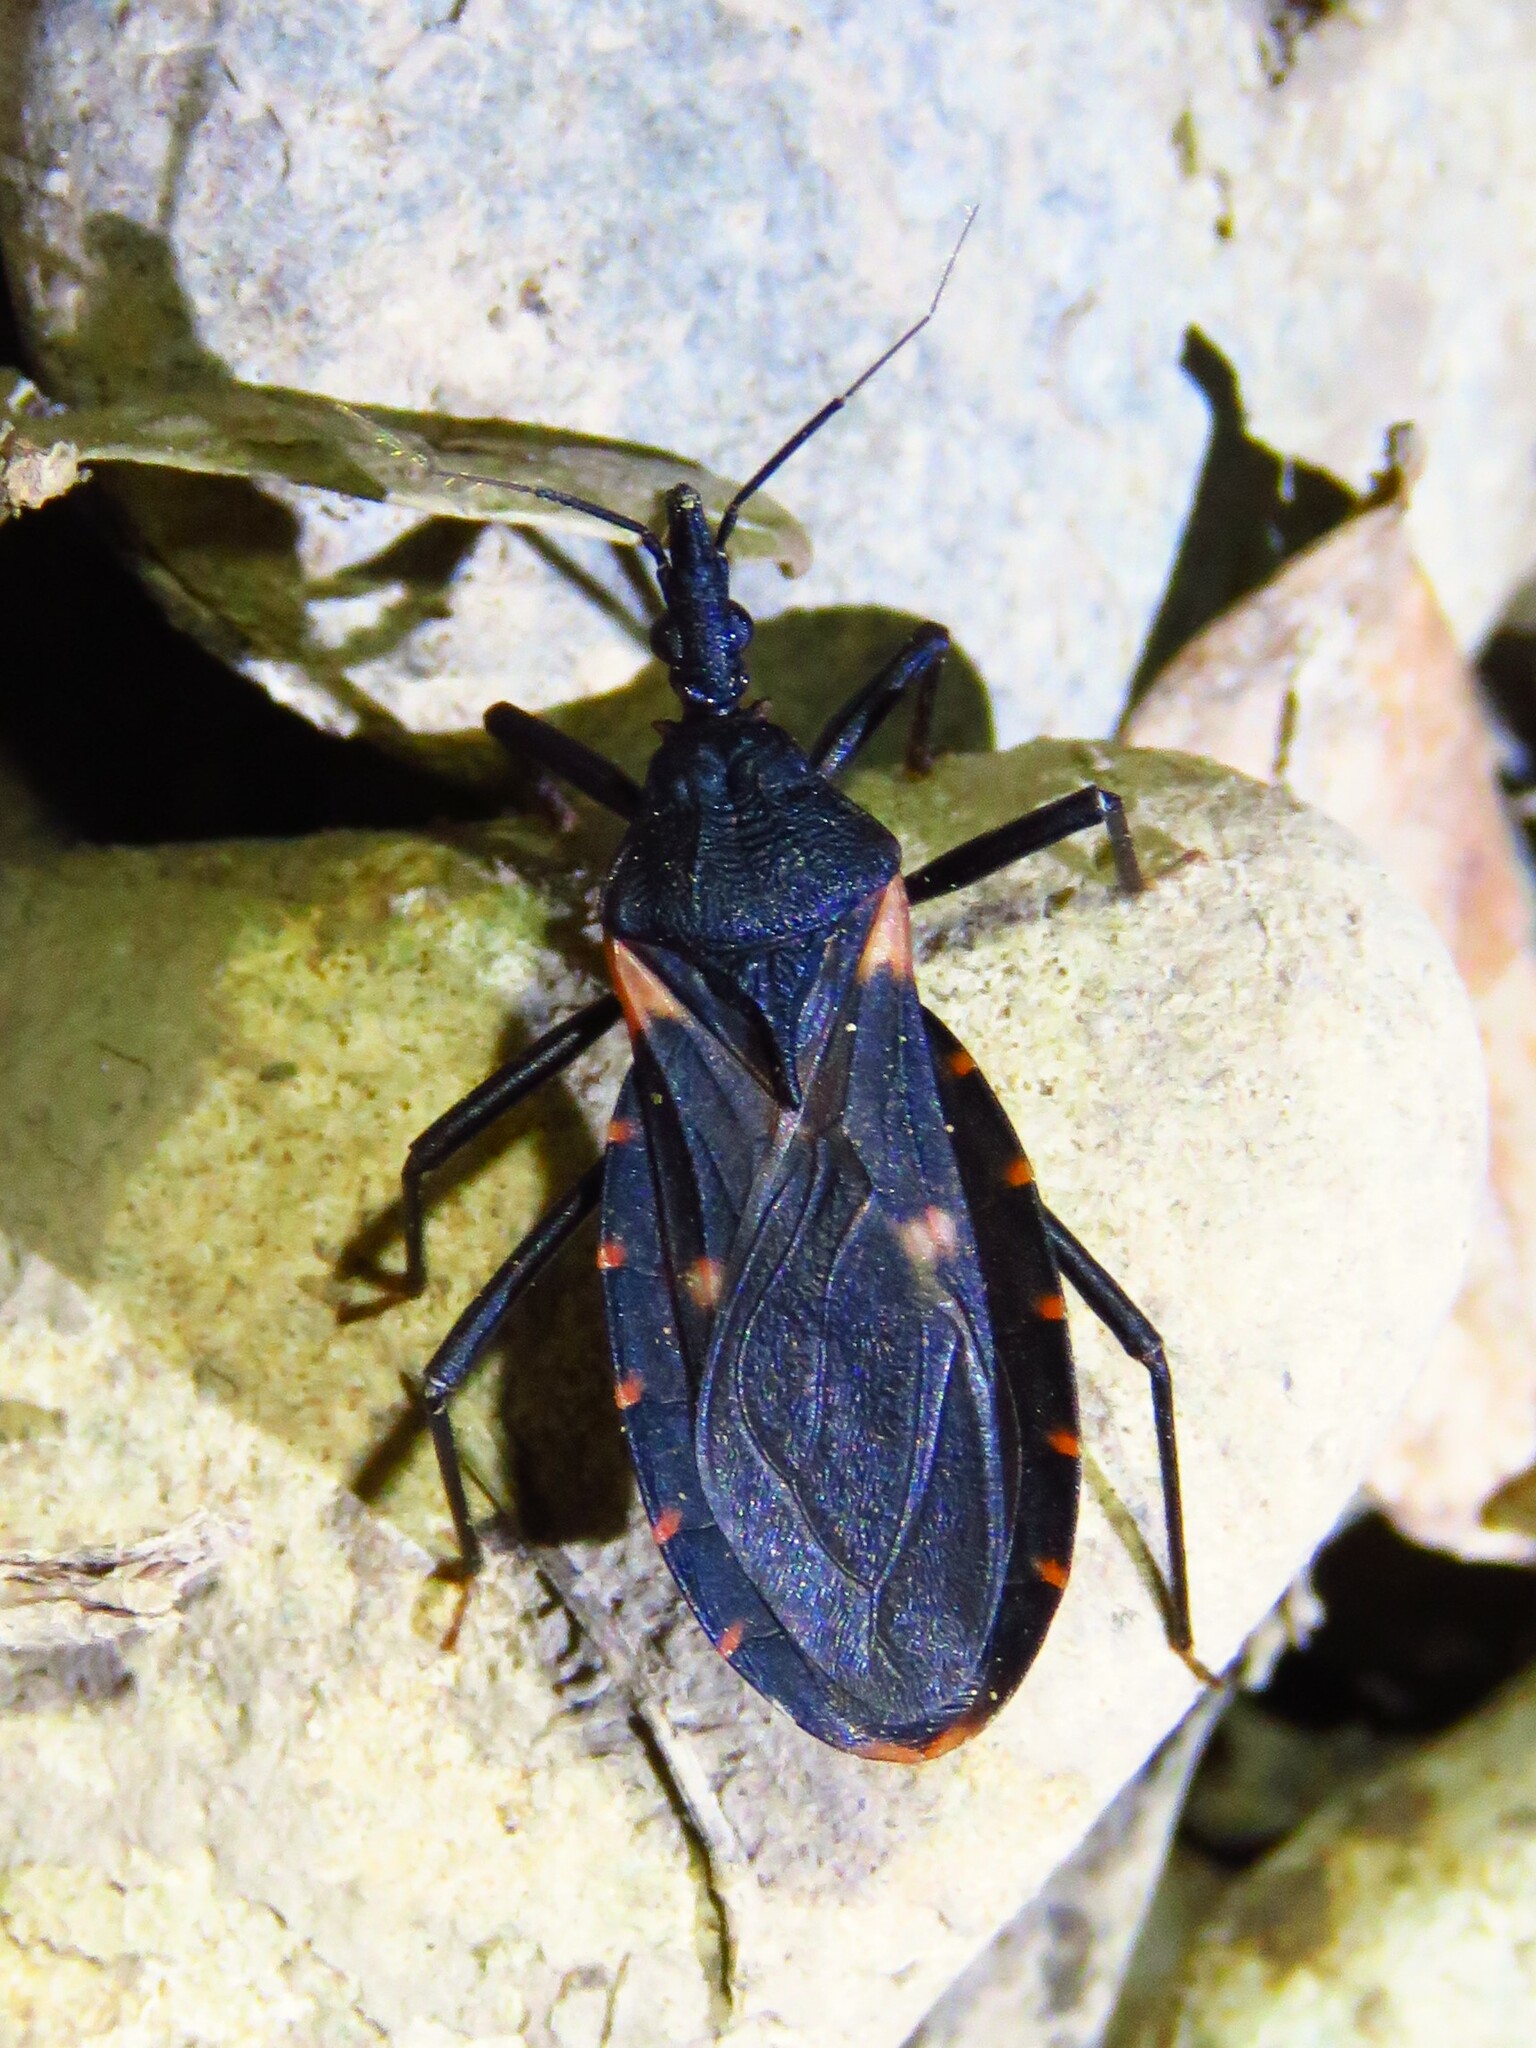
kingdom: Animalia
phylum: Arthropoda
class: Insecta
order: Hemiptera
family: Reduviidae
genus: Triatoma
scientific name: Triatoma gerstaeckeri
